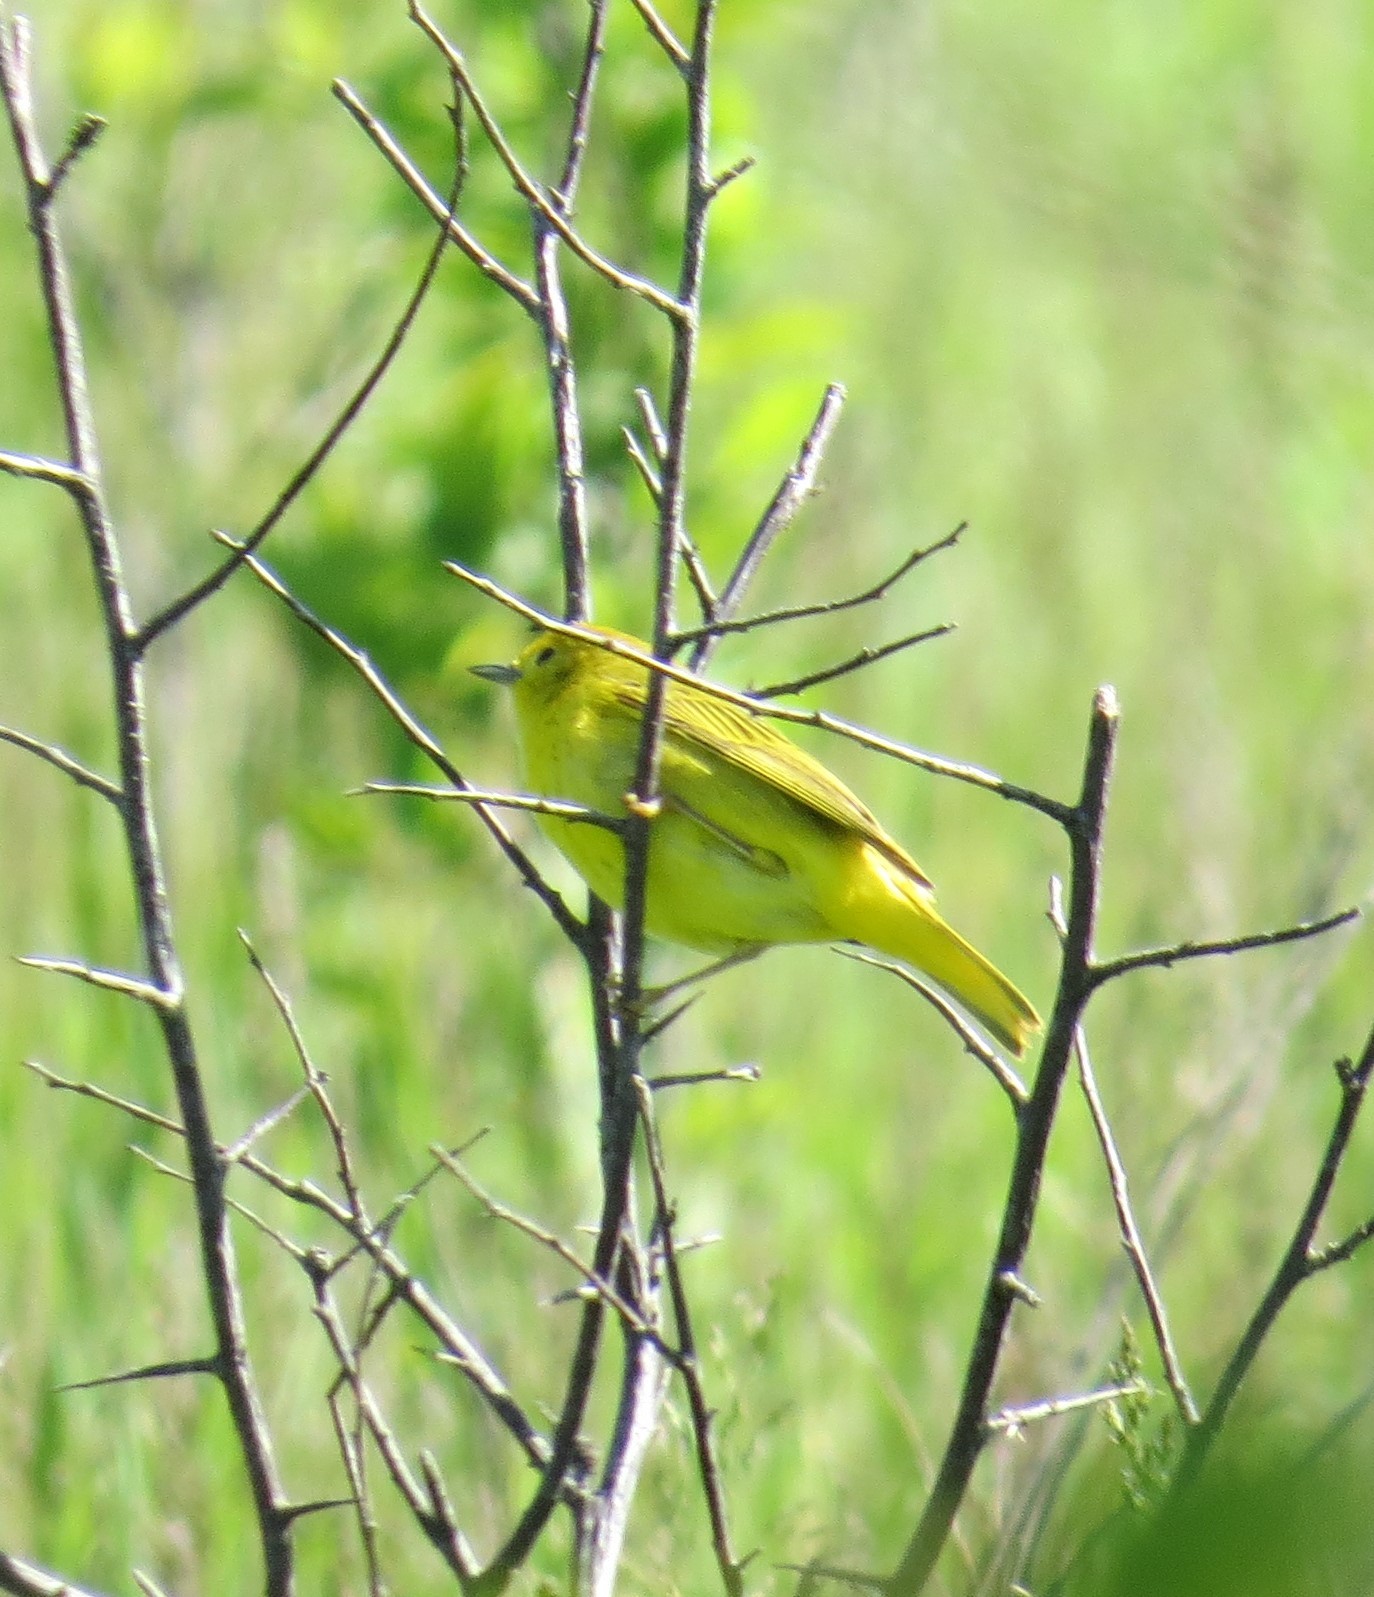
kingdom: Animalia
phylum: Chordata
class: Aves
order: Passeriformes
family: Parulidae
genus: Setophaga
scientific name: Setophaga petechia
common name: Yellow warbler
